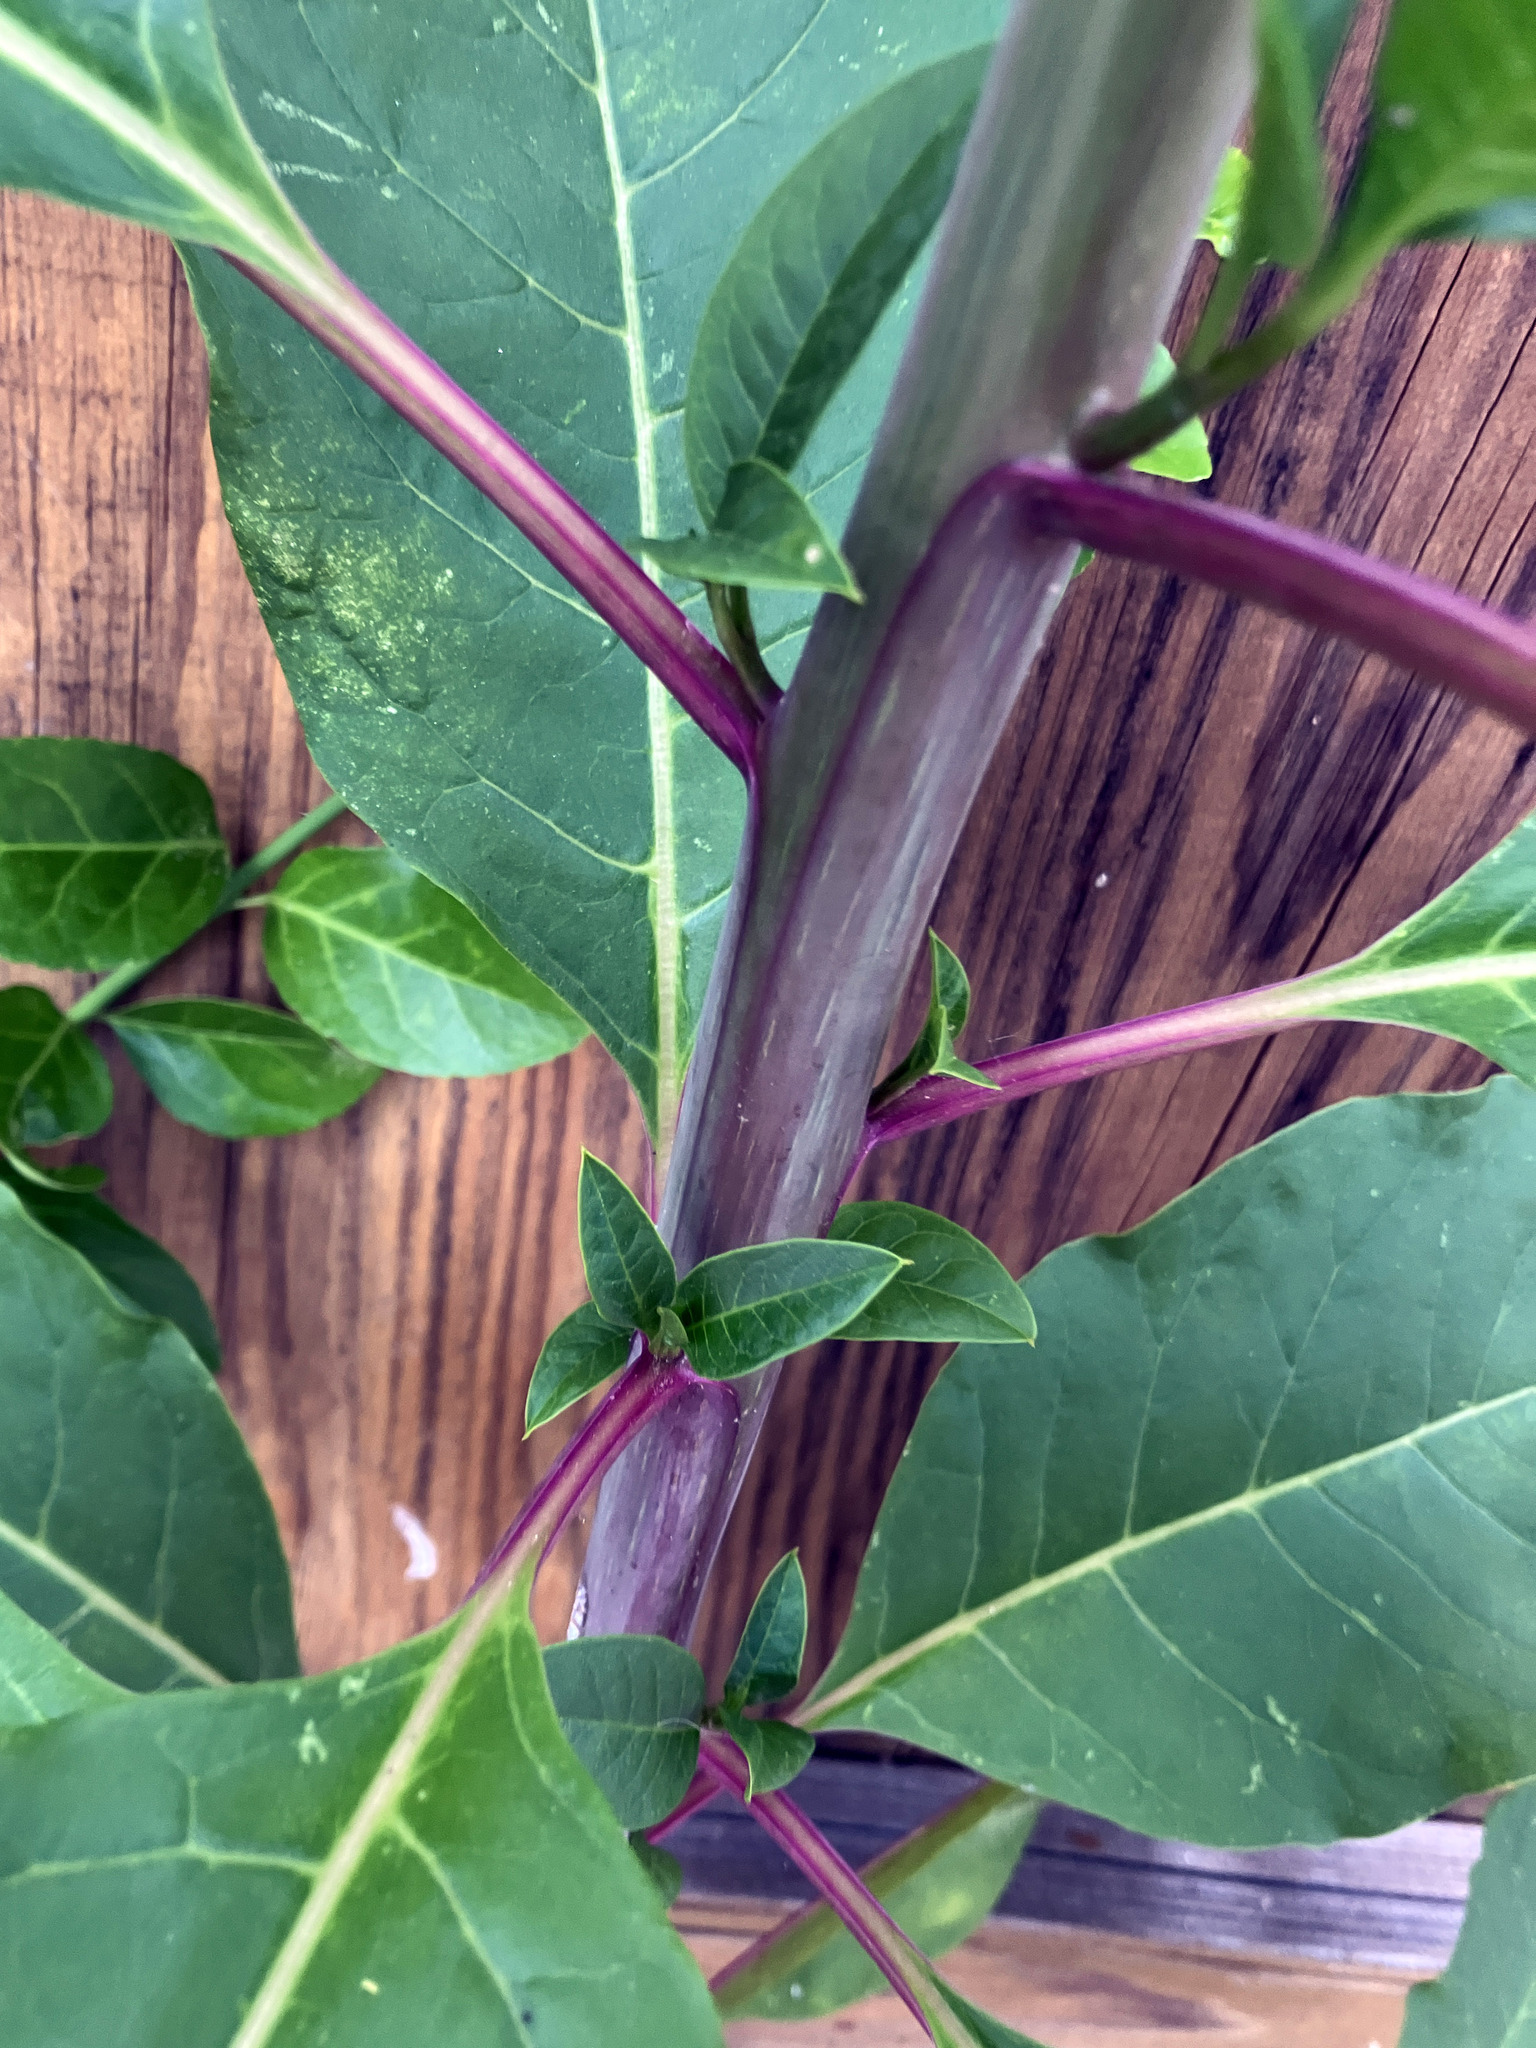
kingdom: Plantae
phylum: Tracheophyta
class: Magnoliopsida
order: Caryophyllales
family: Phytolaccaceae
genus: Phytolacca
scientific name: Phytolacca americana
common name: American pokeweed
